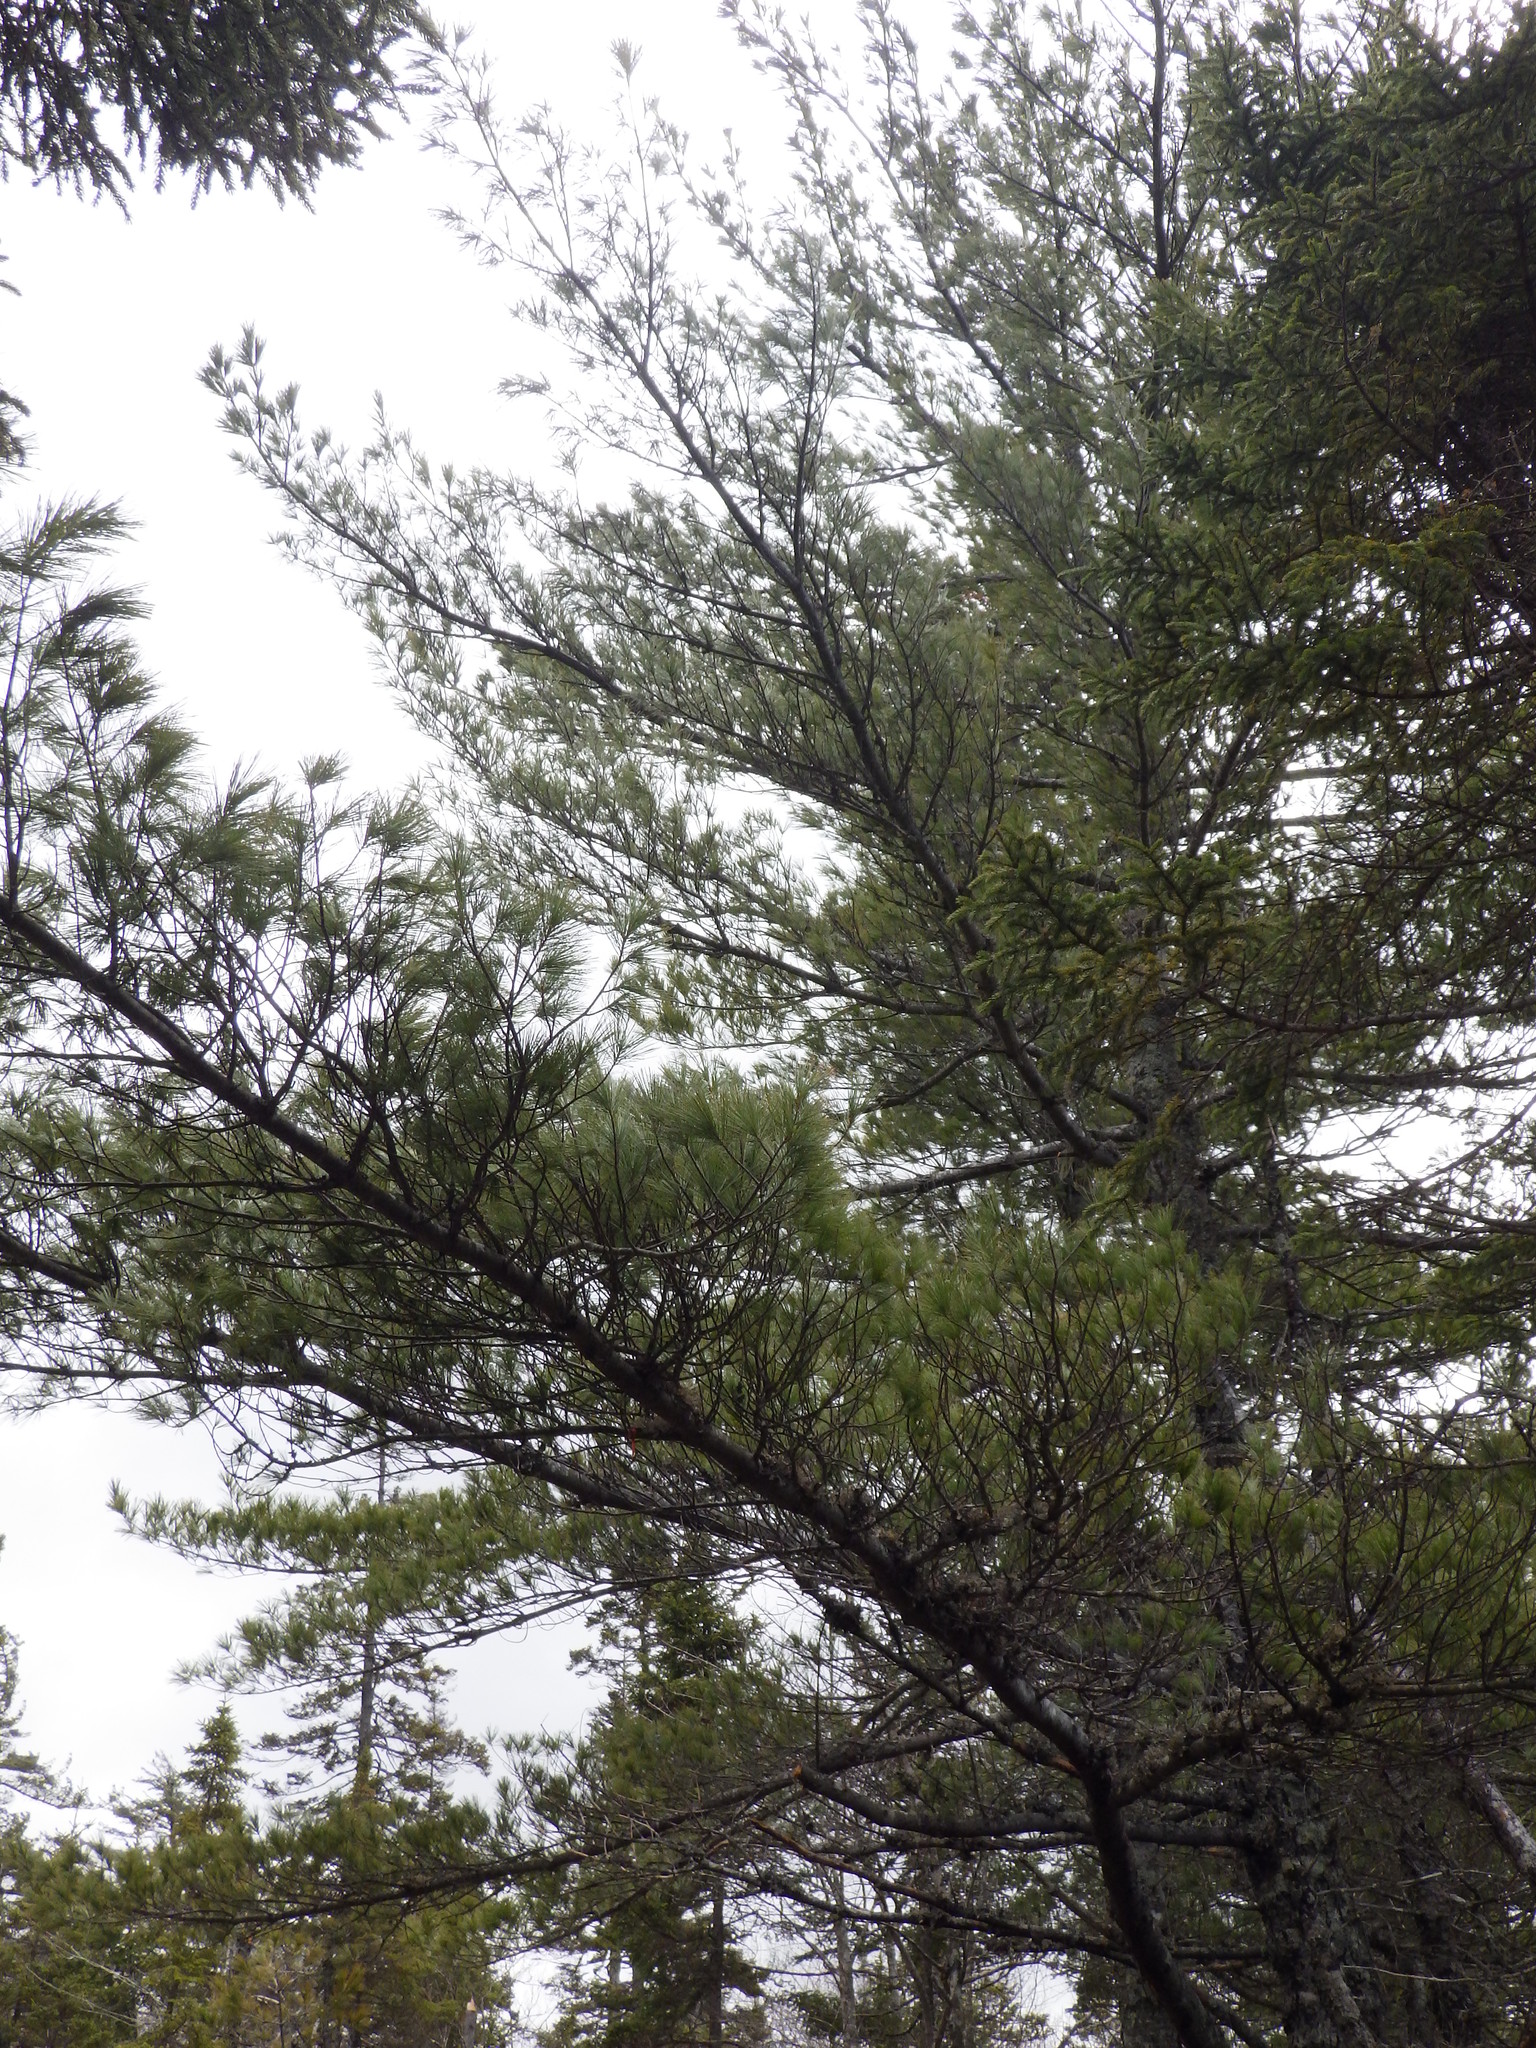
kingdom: Plantae
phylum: Tracheophyta
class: Pinopsida
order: Pinales
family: Pinaceae
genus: Pinus
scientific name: Pinus strobus
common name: Weymouth pine
